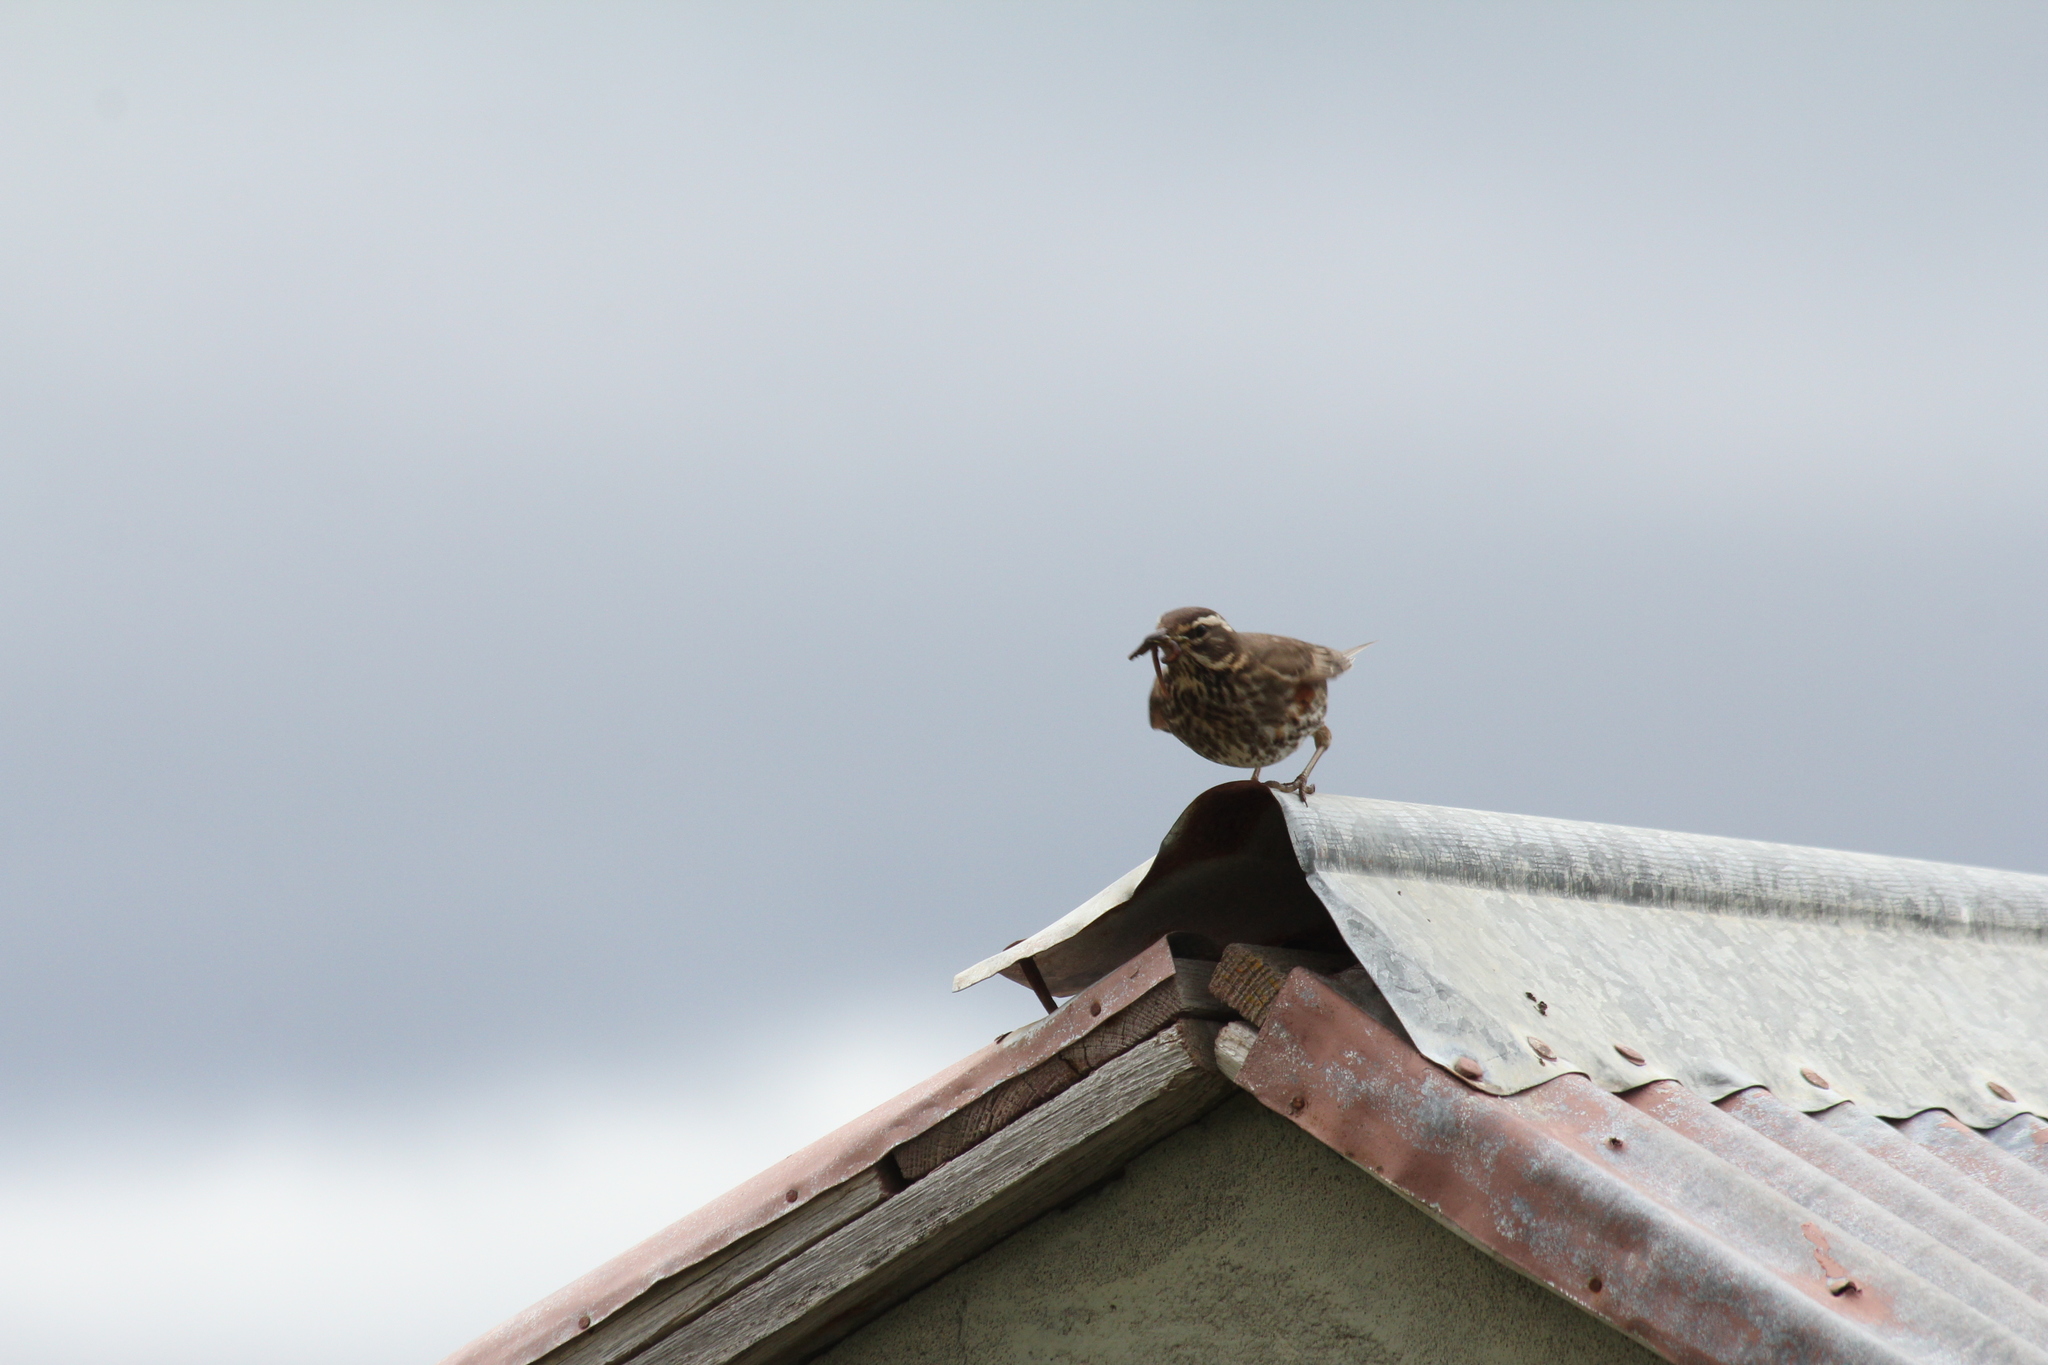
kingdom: Animalia
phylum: Chordata
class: Aves
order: Passeriformes
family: Turdidae
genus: Turdus
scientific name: Turdus iliacus
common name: Redwing
